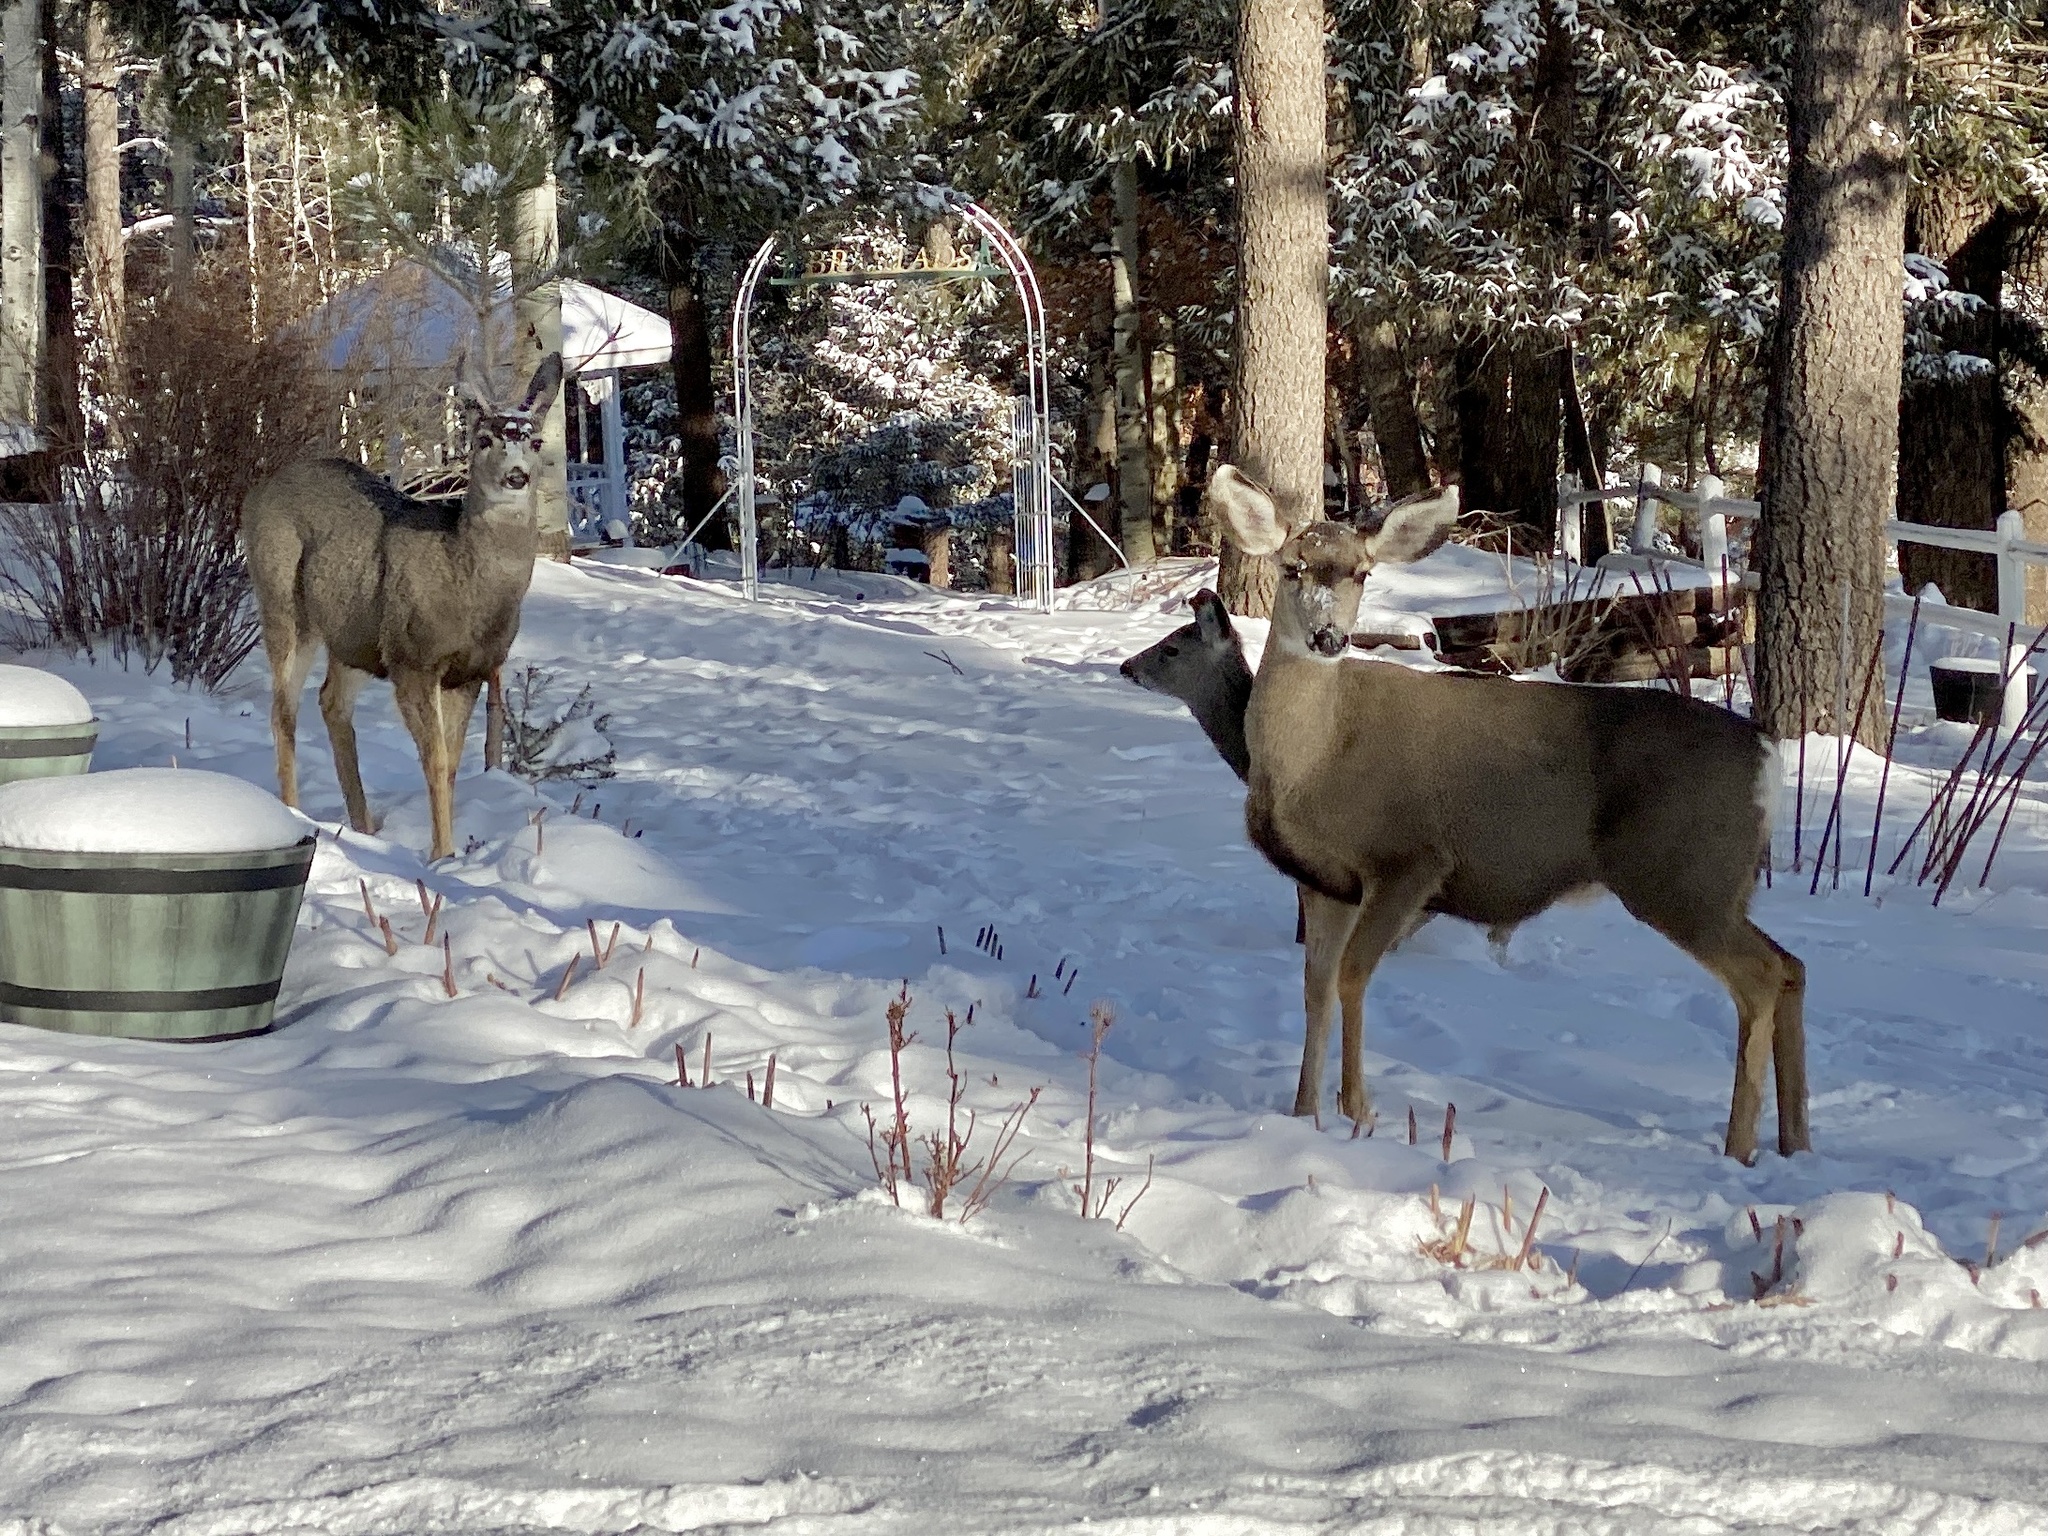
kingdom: Animalia
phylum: Chordata
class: Mammalia
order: Artiodactyla
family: Cervidae
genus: Odocoileus
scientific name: Odocoileus hemionus
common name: Mule deer
